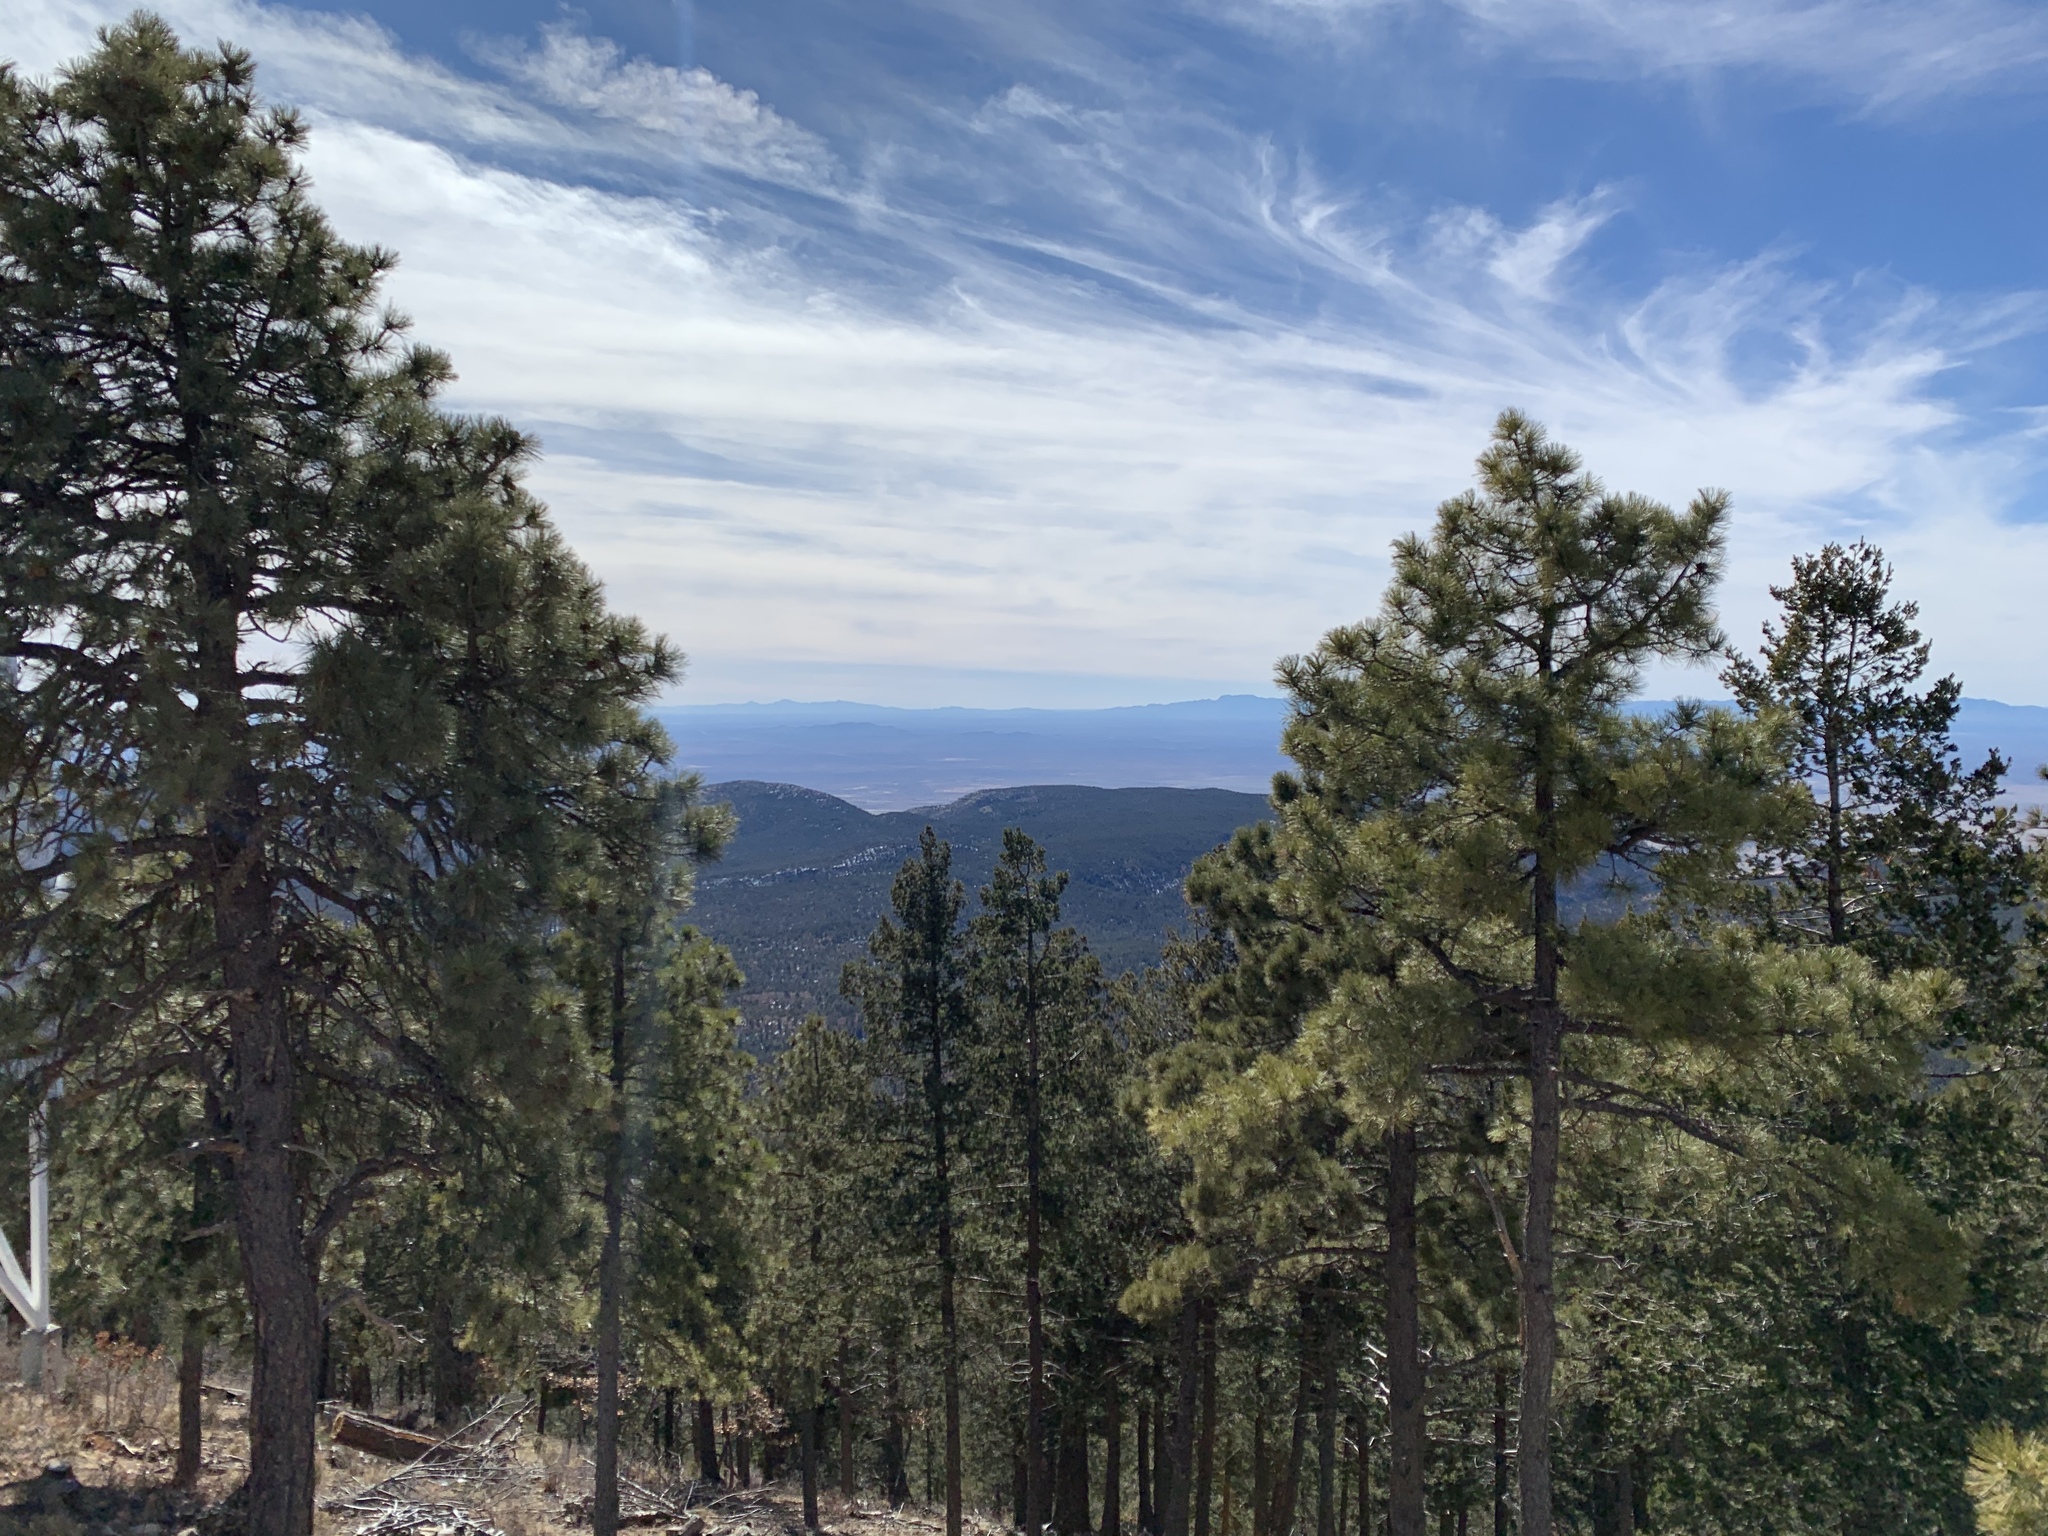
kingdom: Plantae
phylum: Tracheophyta
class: Pinopsida
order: Pinales
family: Pinaceae
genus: Pinus
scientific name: Pinus ponderosa
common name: Western yellow-pine
